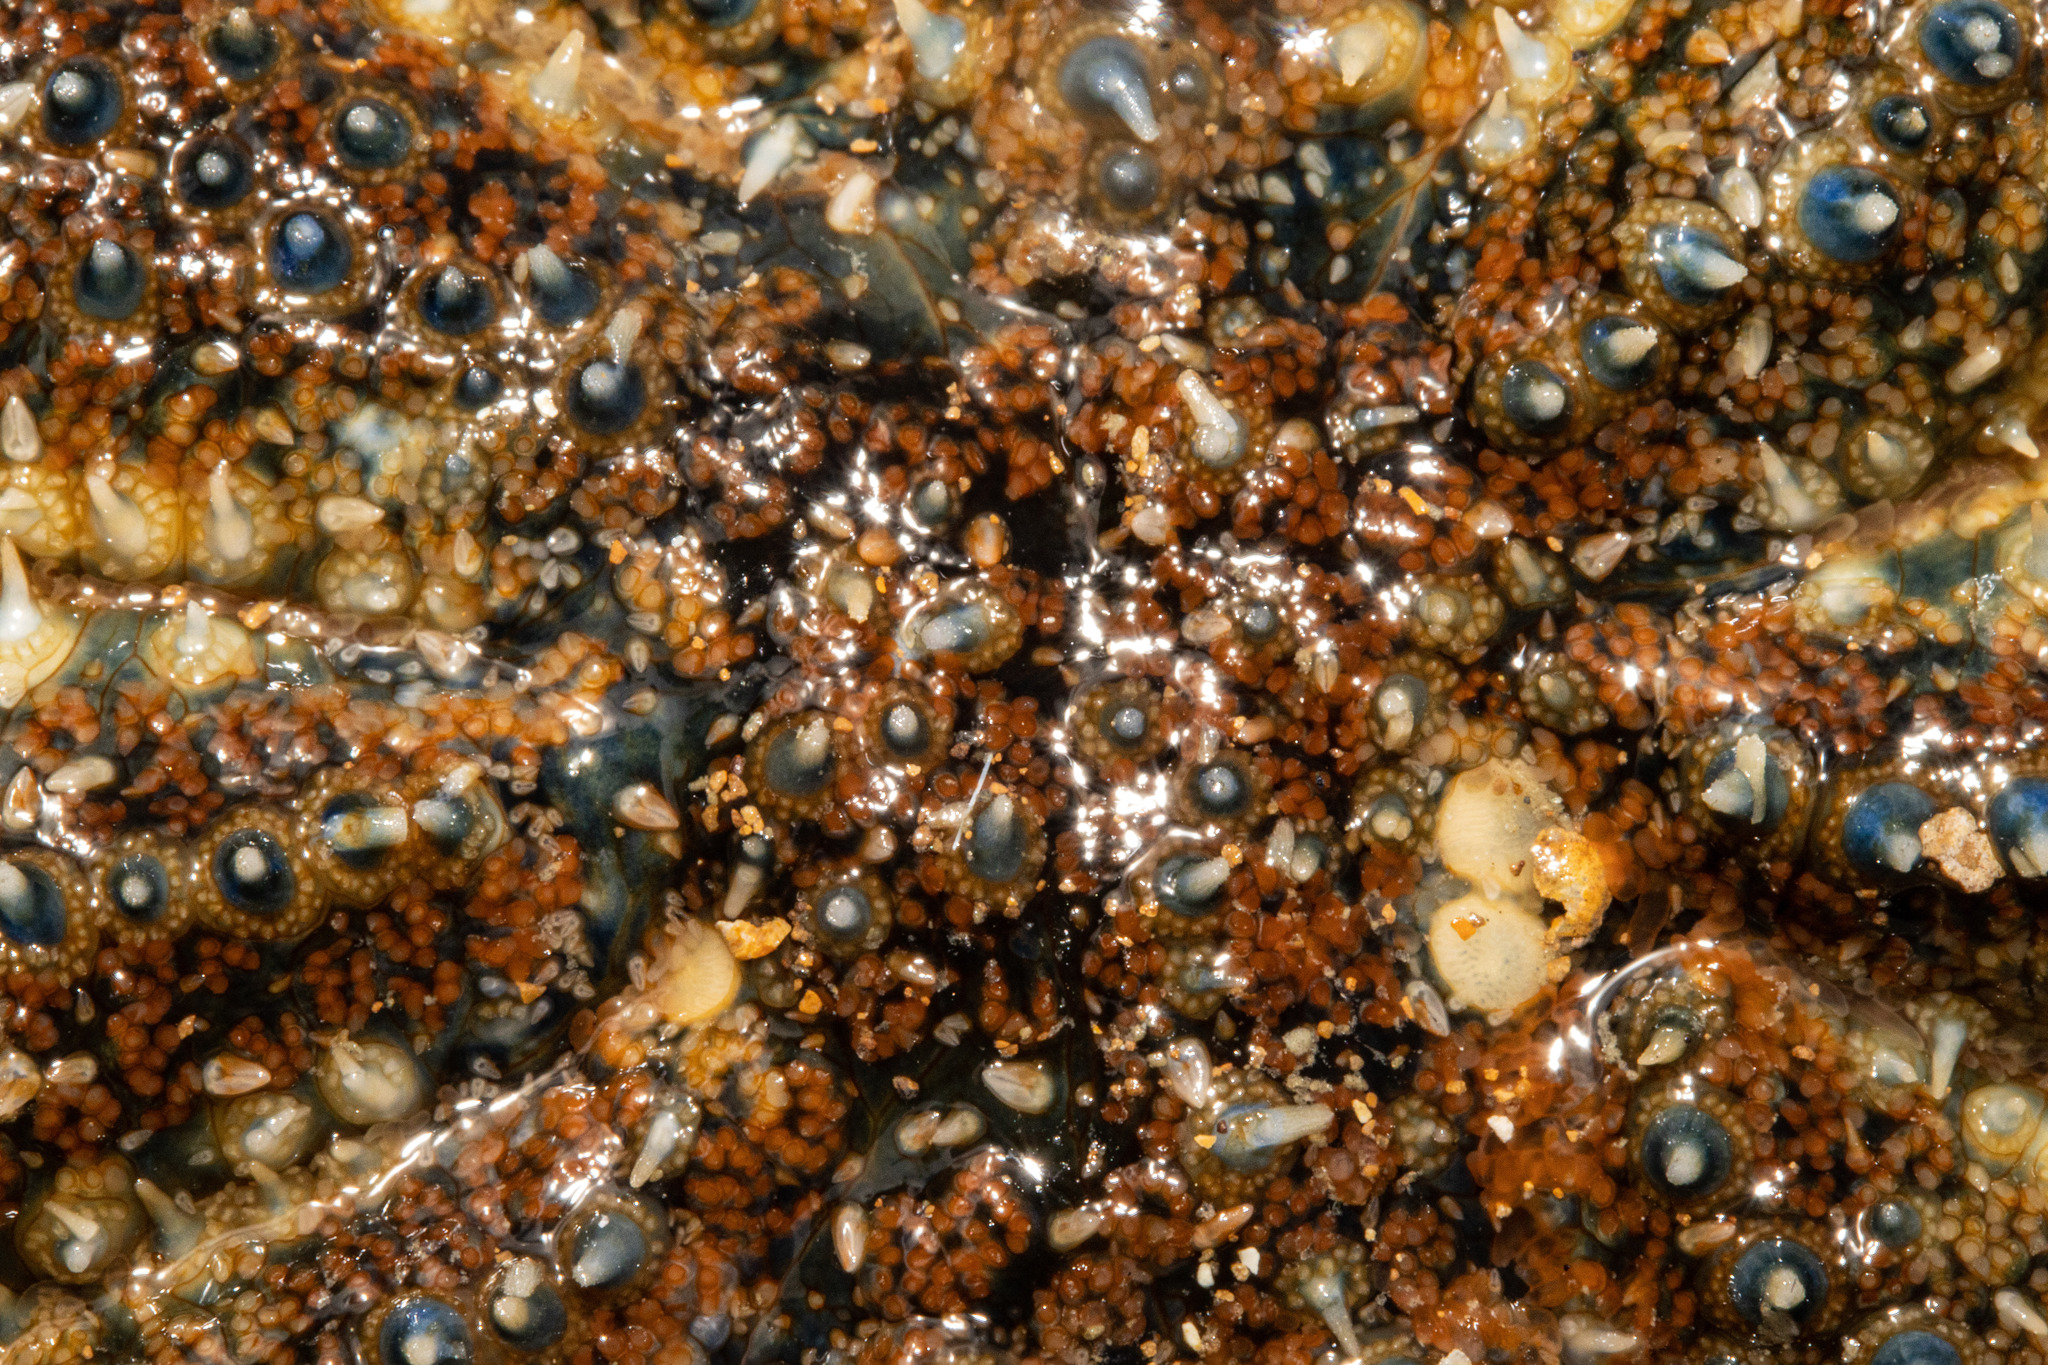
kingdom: Animalia
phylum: Echinodermata
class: Asteroidea
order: Forcipulatida
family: Asteriidae
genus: Coscinasterias
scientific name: Coscinasterias muricata
